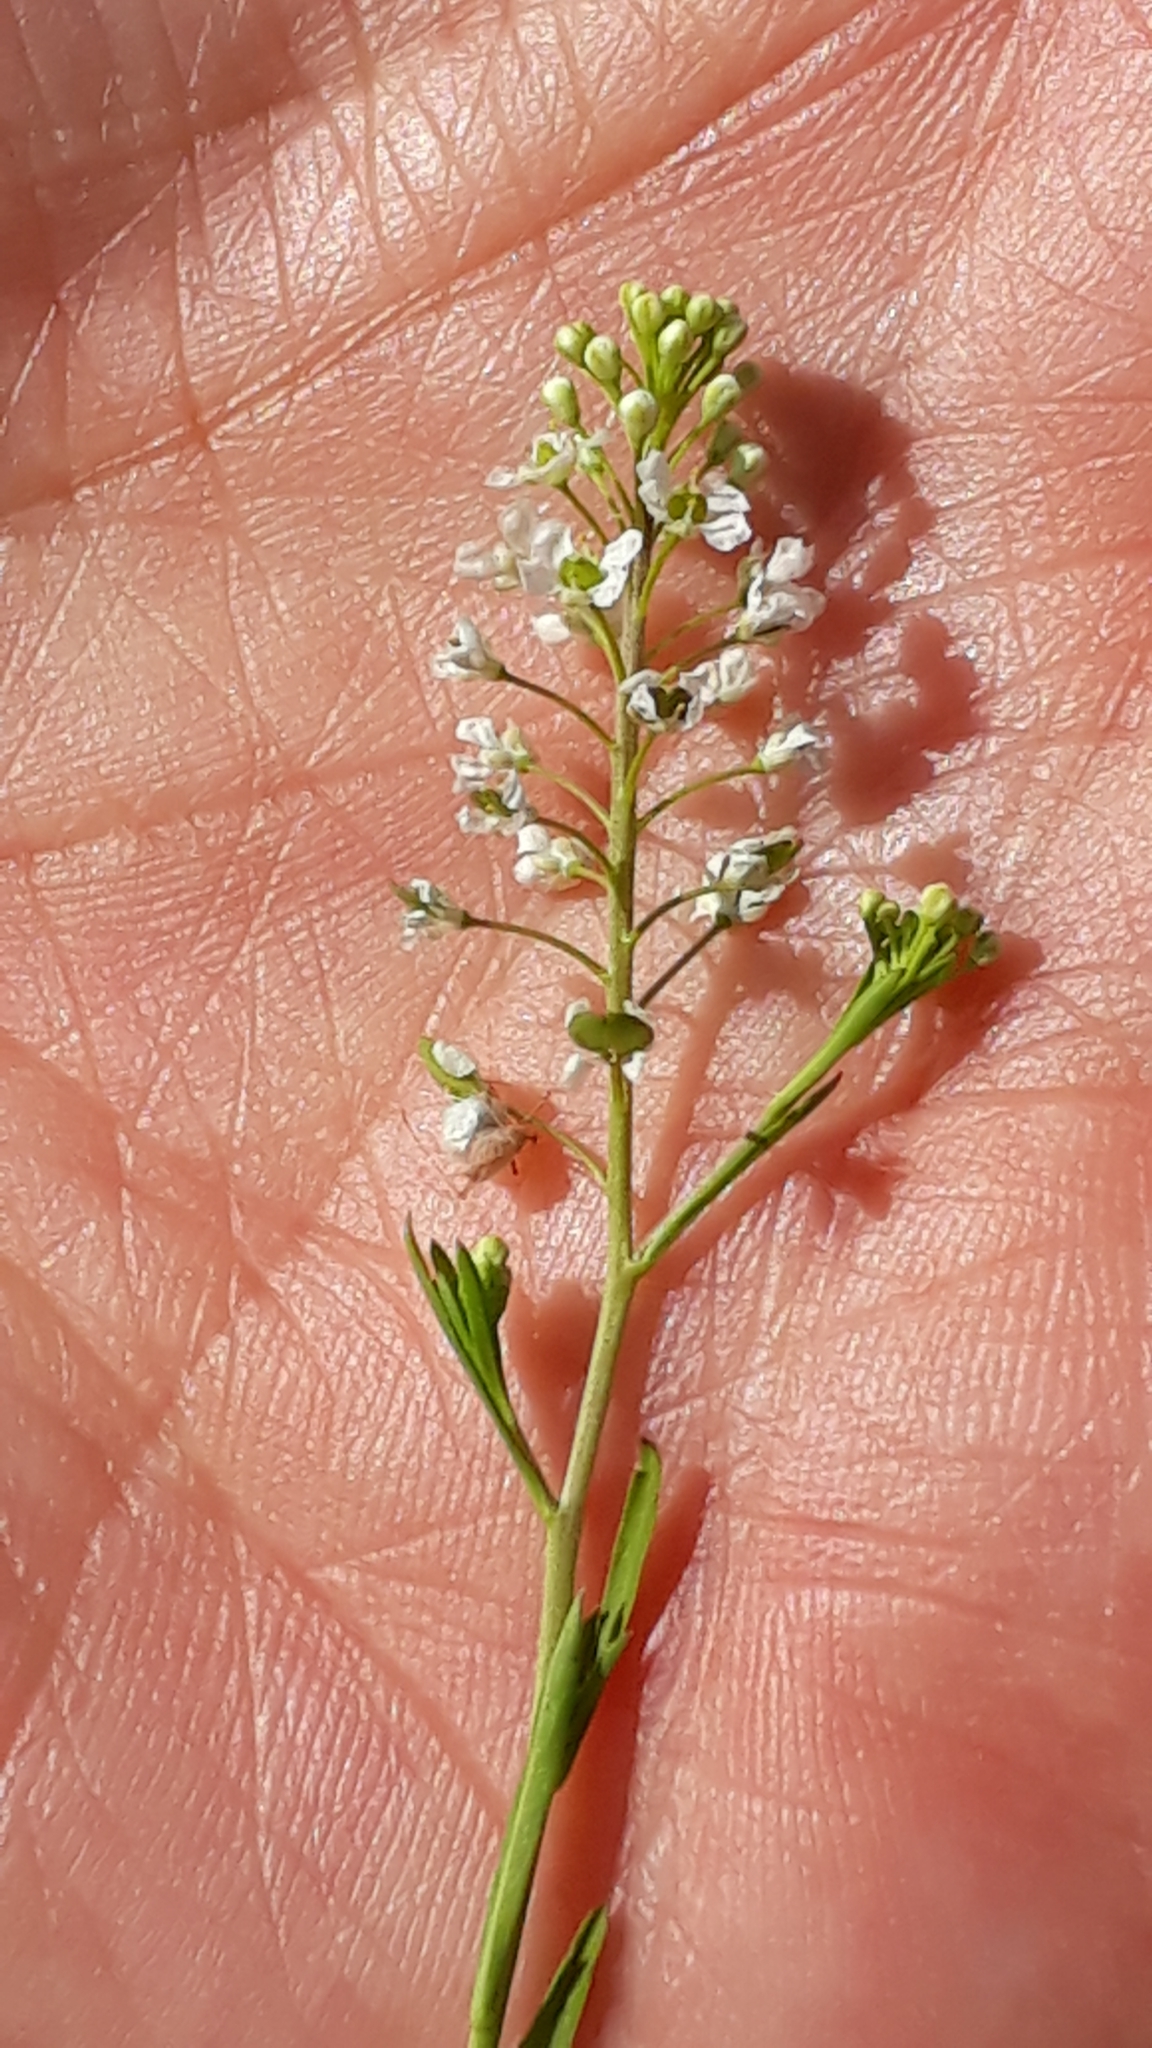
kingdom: Plantae
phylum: Tracheophyta
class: Magnoliopsida
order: Brassicales
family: Brassicaceae
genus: Lepidium
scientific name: Lepidium virginicum
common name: Least pepperwort
